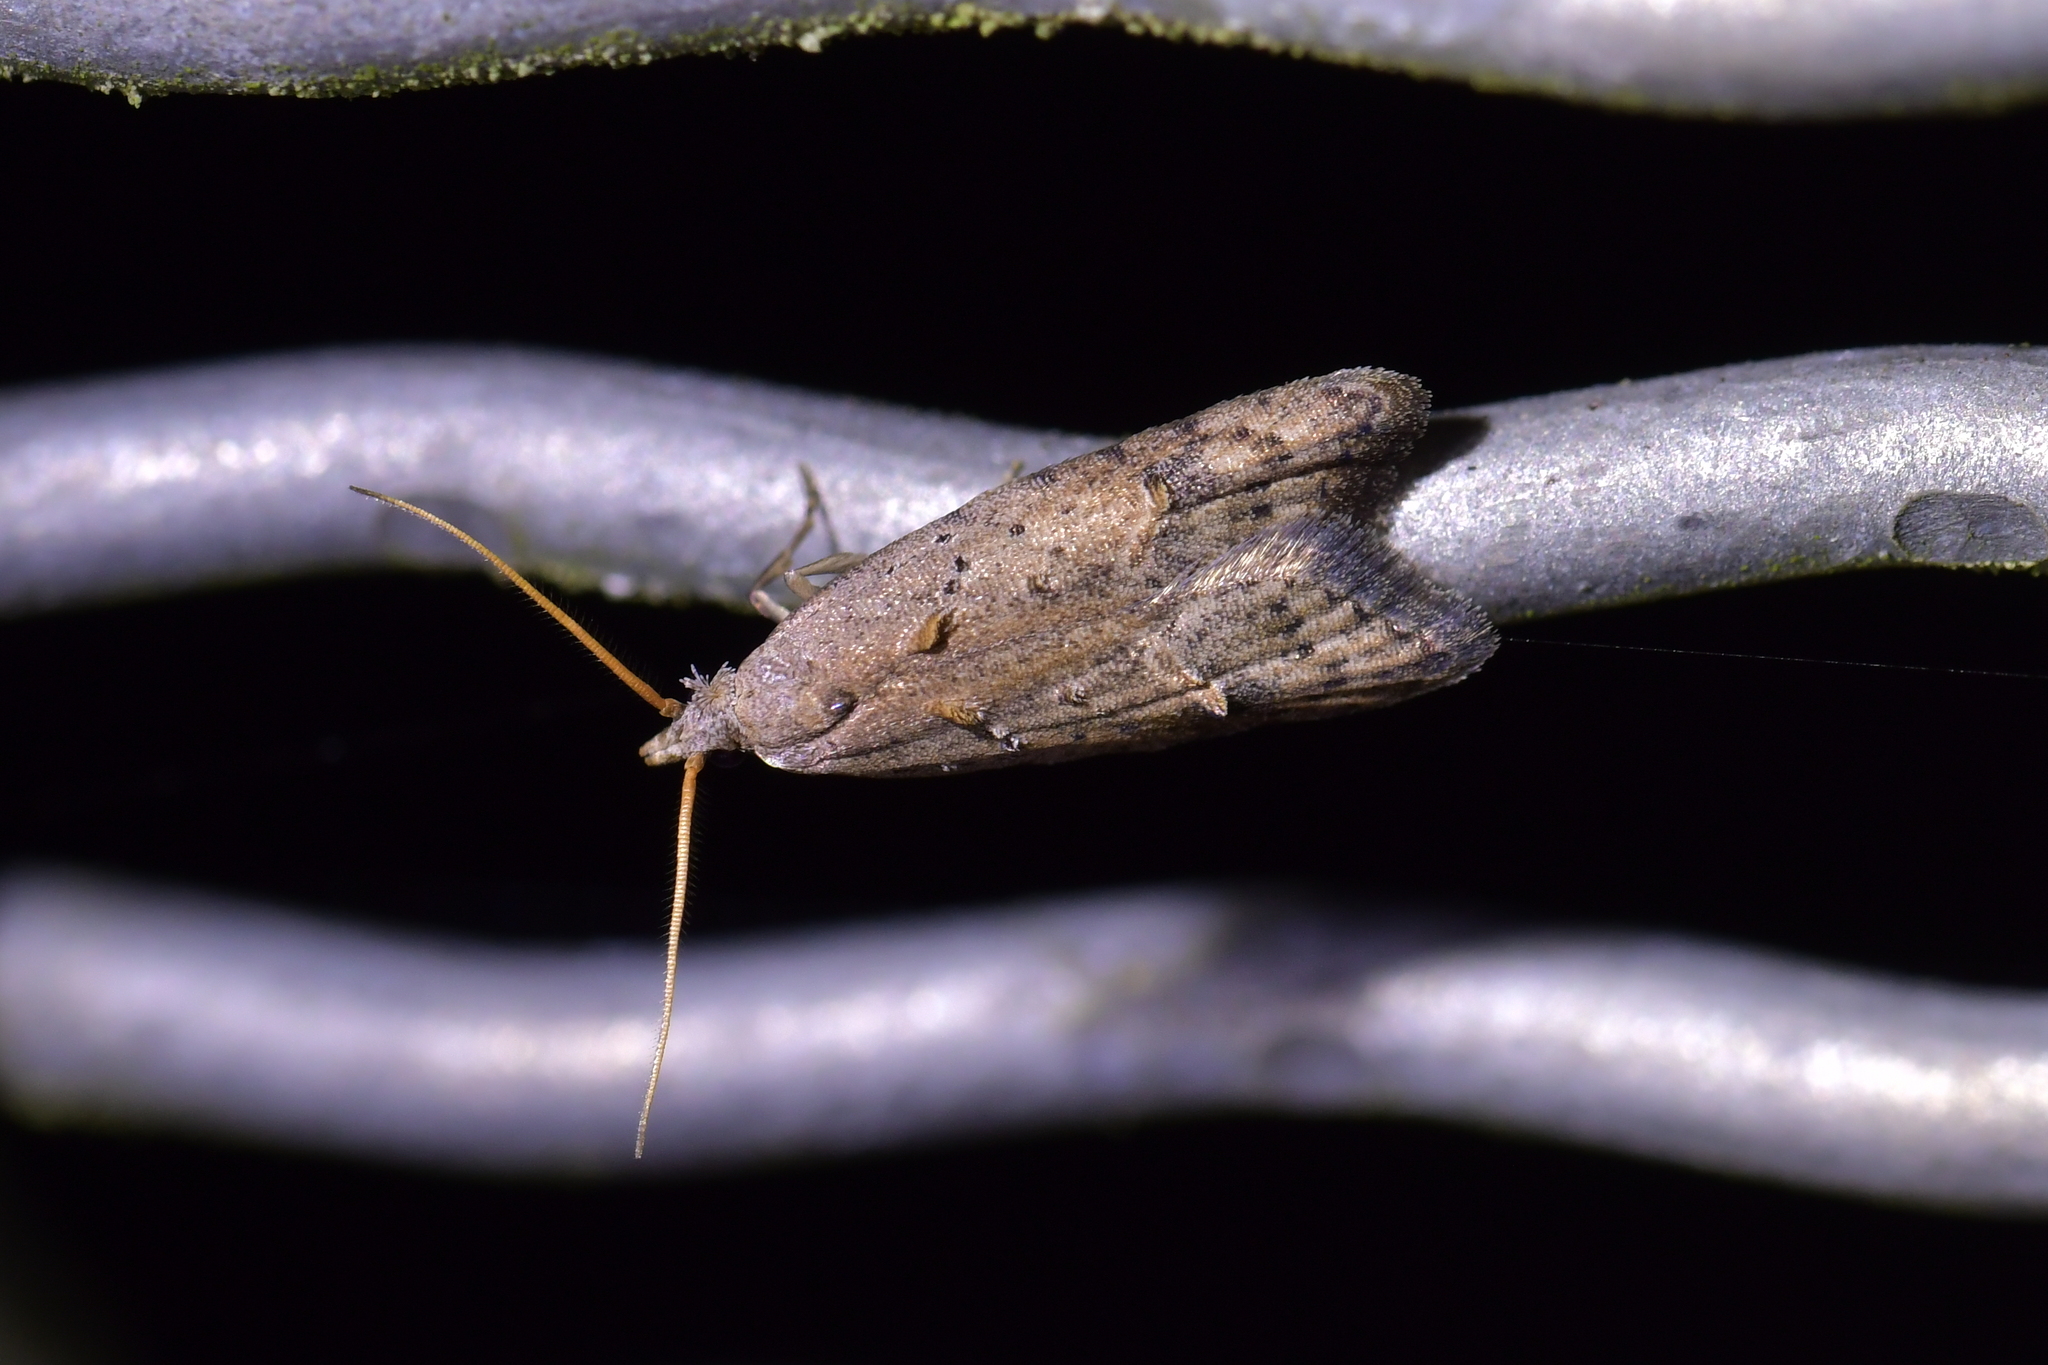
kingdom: Animalia
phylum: Arthropoda
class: Insecta
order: Lepidoptera
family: Carposinidae
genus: Carposina
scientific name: Carposina rubophaga
